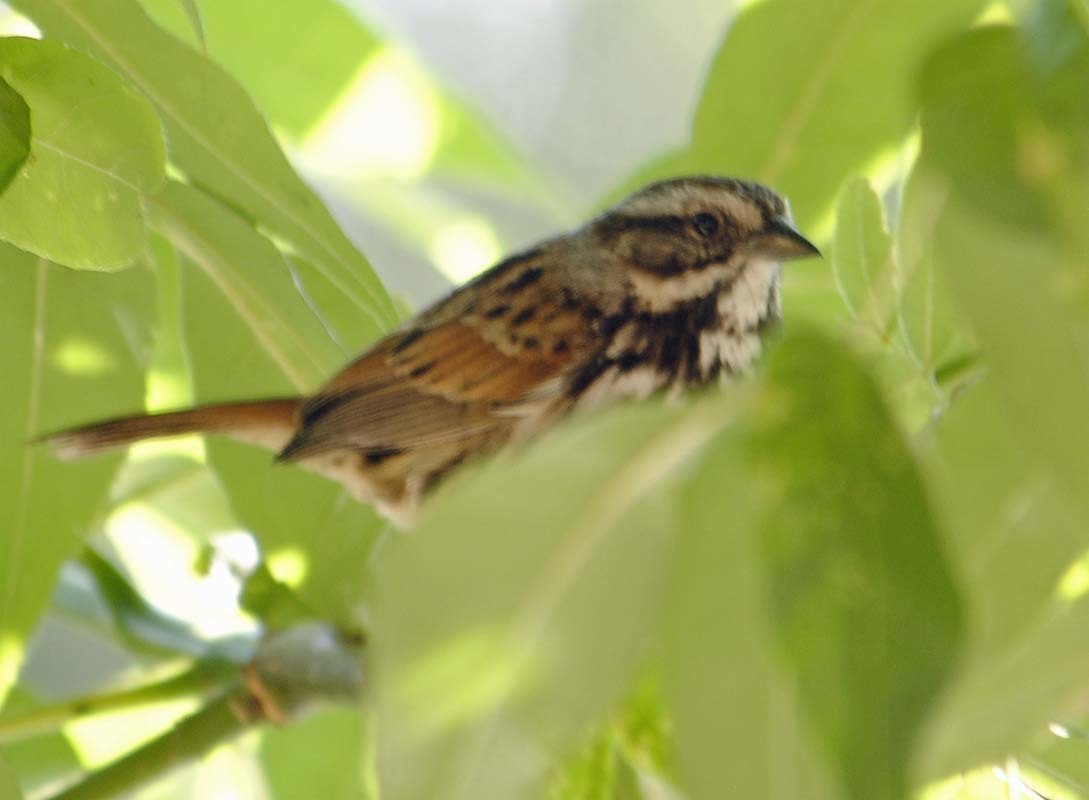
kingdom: Animalia
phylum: Chordata
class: Aves
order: Passeriformes
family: Passerellidae
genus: Melospiza
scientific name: Melospiza melodia
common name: Song sparrow
